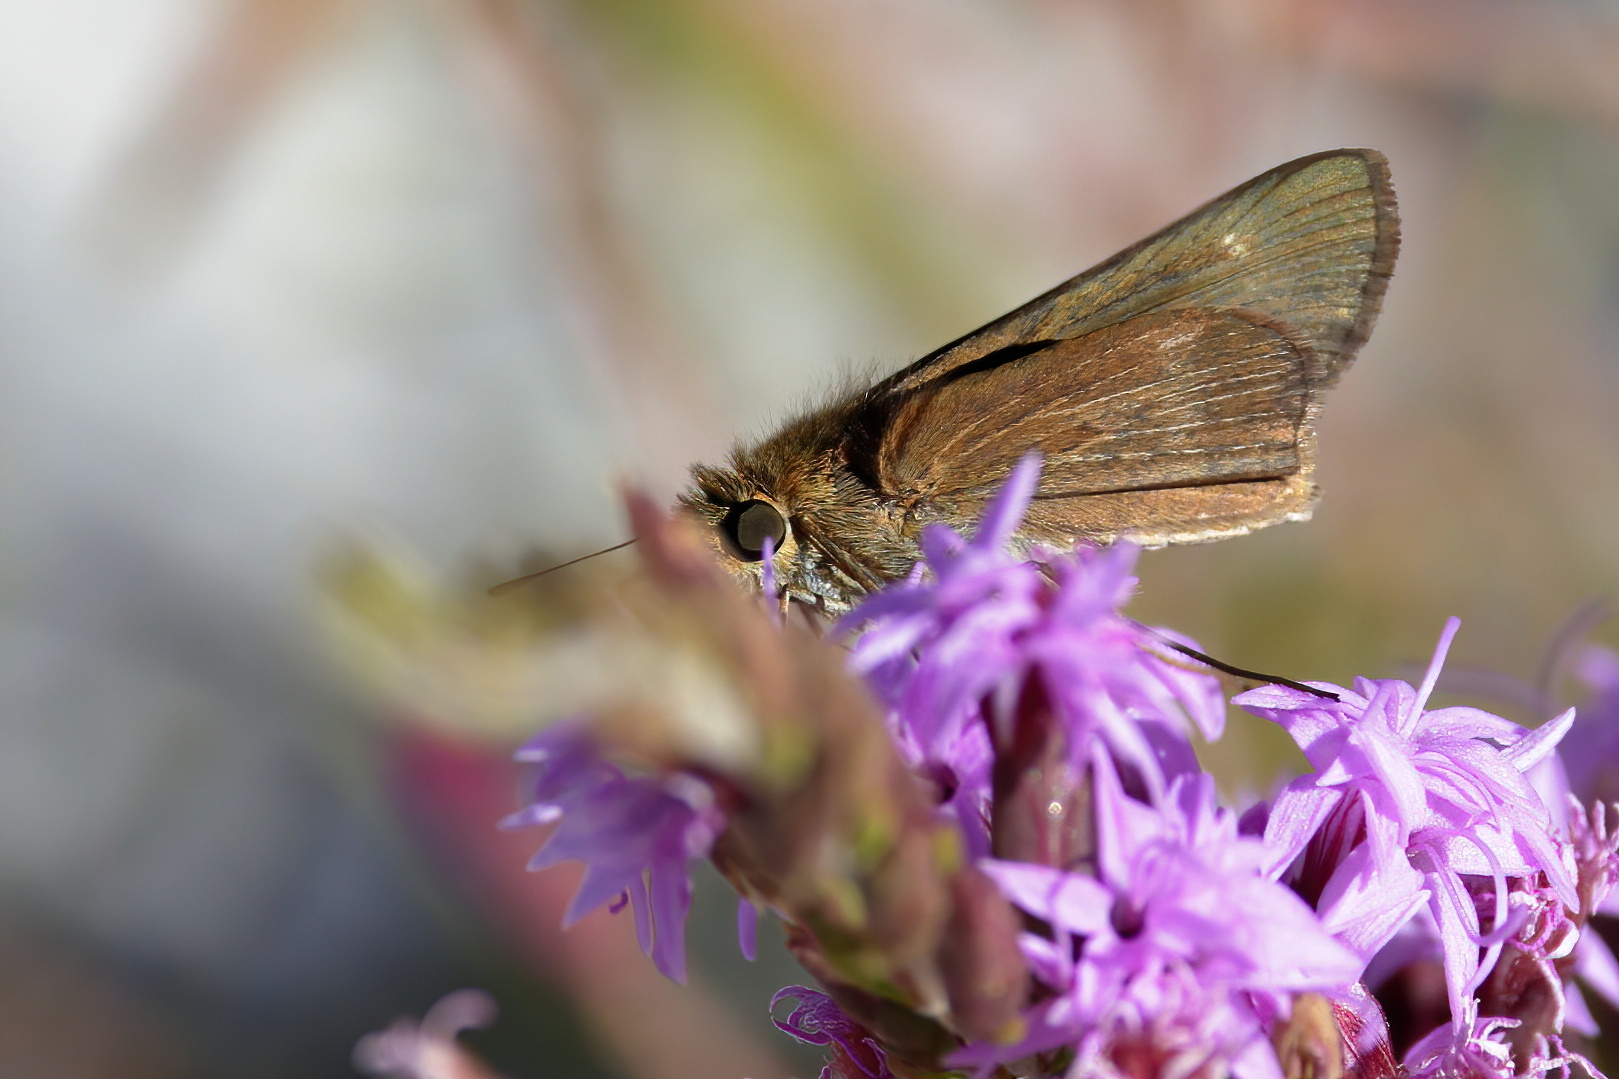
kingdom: Animalia
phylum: Arthropoda
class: Insecta
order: Lepidoptera
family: Hesperiidae
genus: Panoquina
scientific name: Panoquina ocola
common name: Ocola skipper
